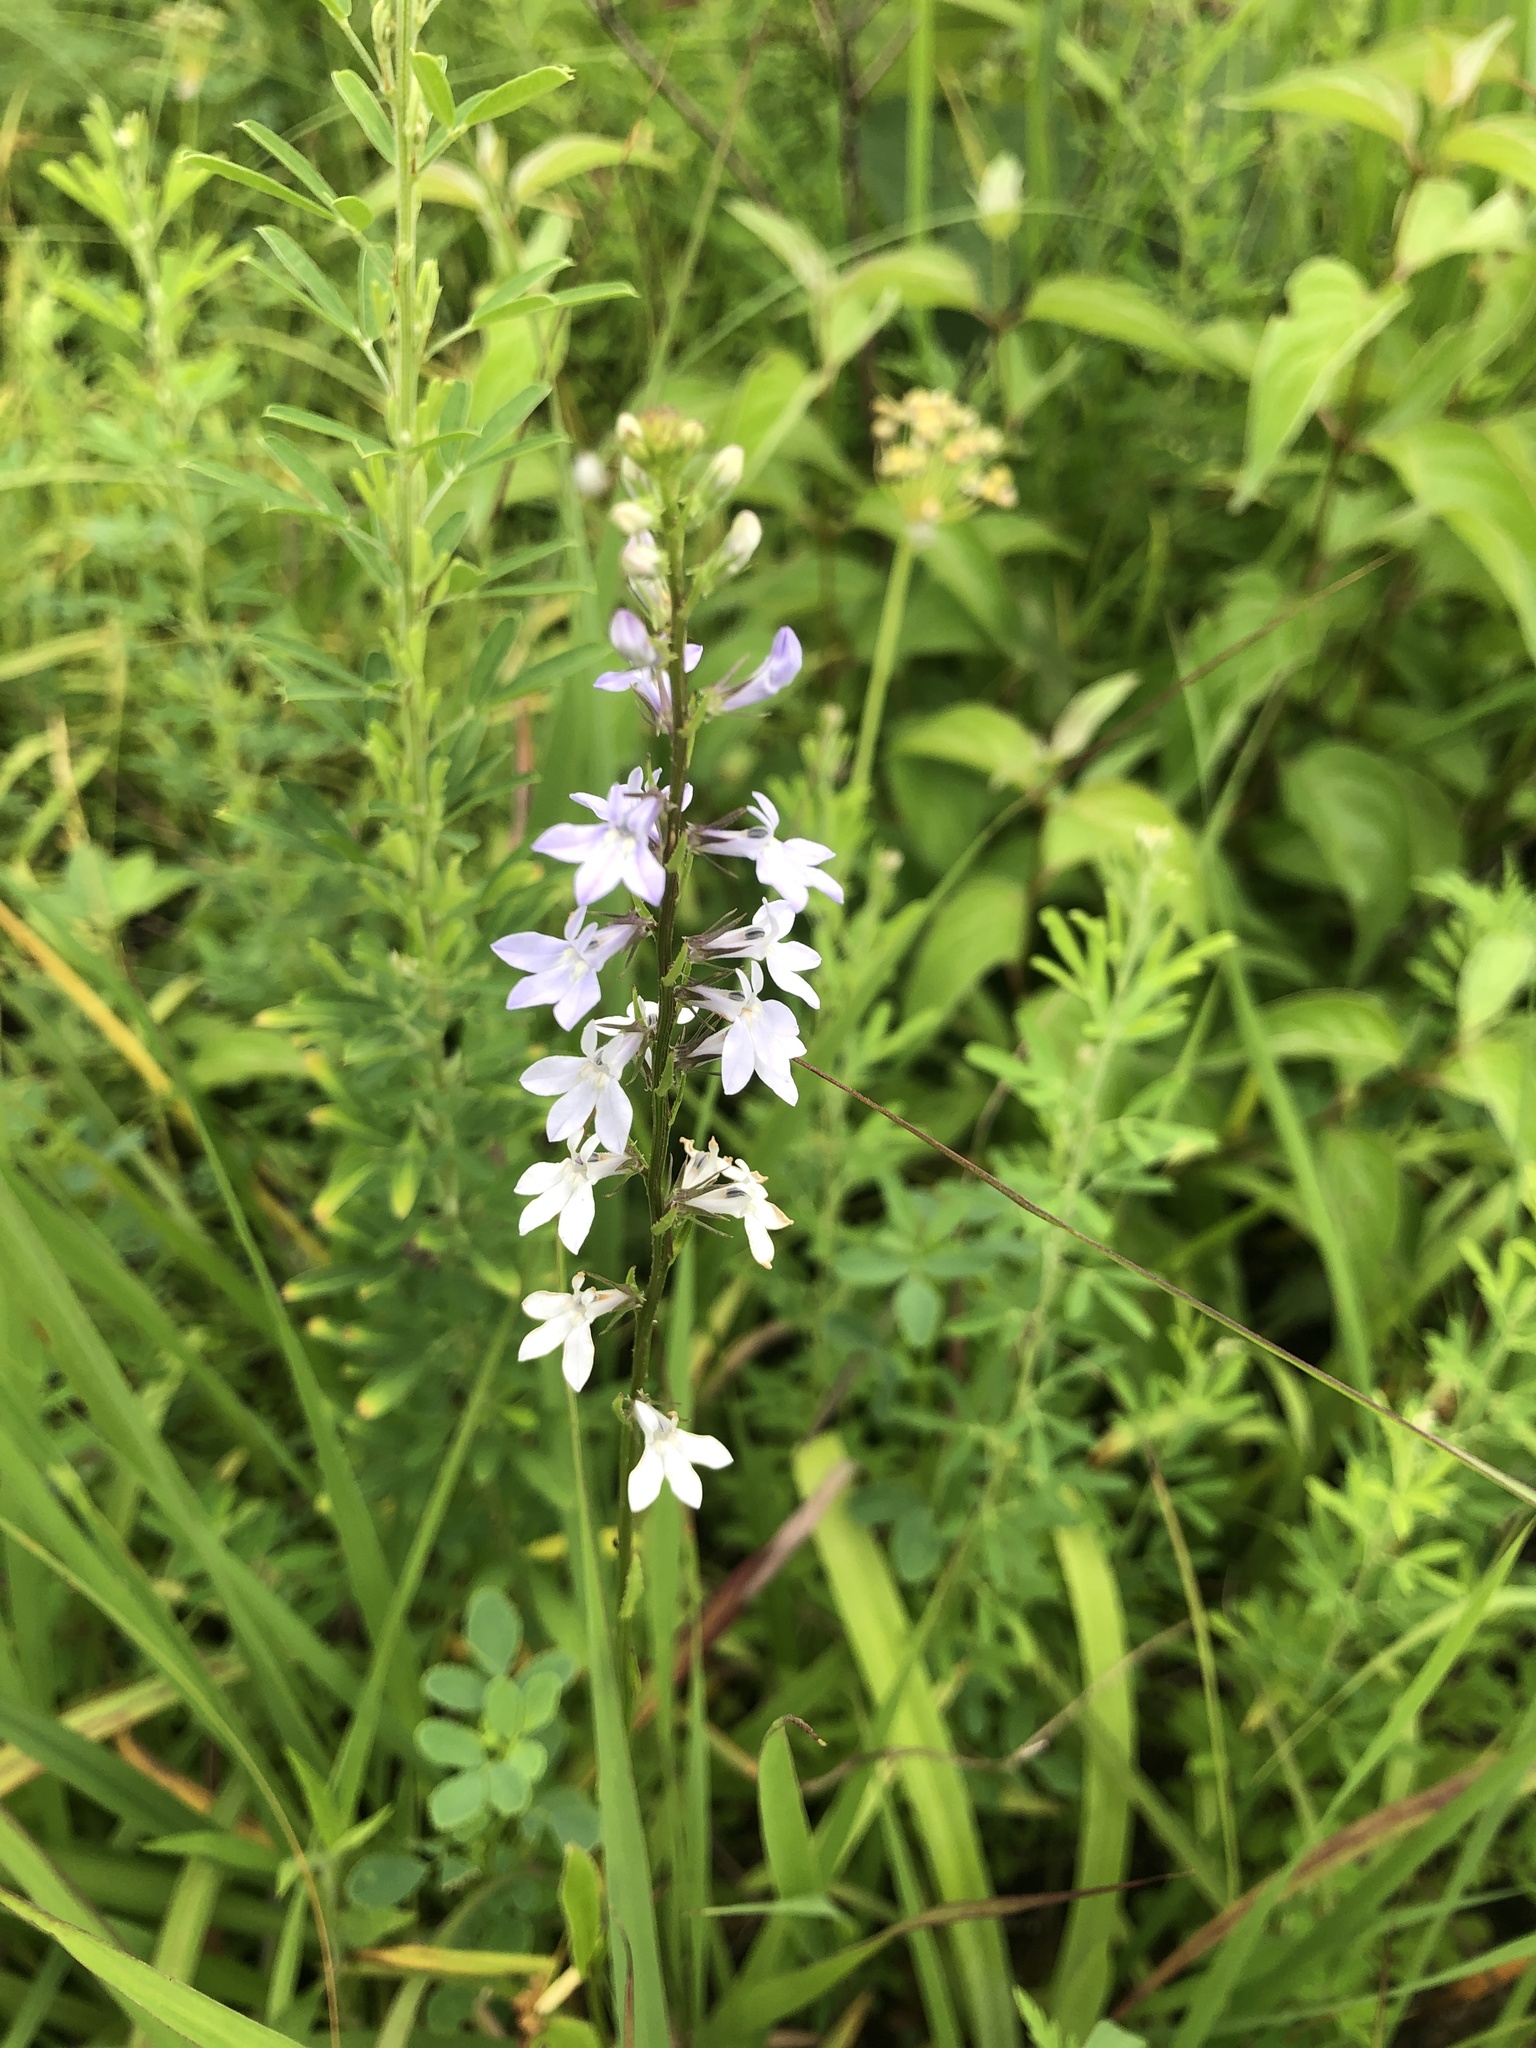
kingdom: Plantae
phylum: Tracheophyta
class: Magnoliopsida
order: Asterales
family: Campanulaceae
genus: Lobelia
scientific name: Lobelia spicata
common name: Pale-spike lobelia
